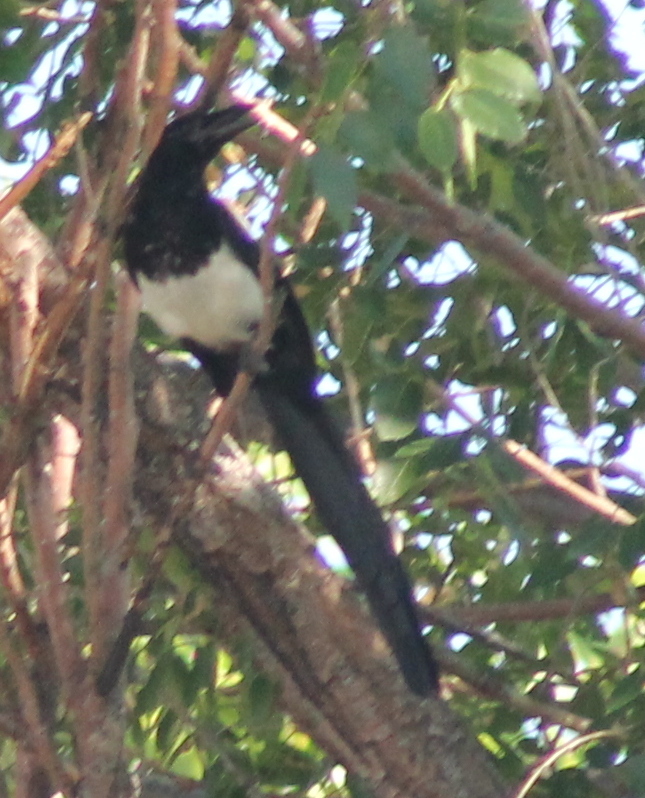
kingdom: Animalia
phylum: Chordata
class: Aves
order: Passeriformes
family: Corvidae
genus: Pica
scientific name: Pica hudsonia
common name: Black-billed magpie
